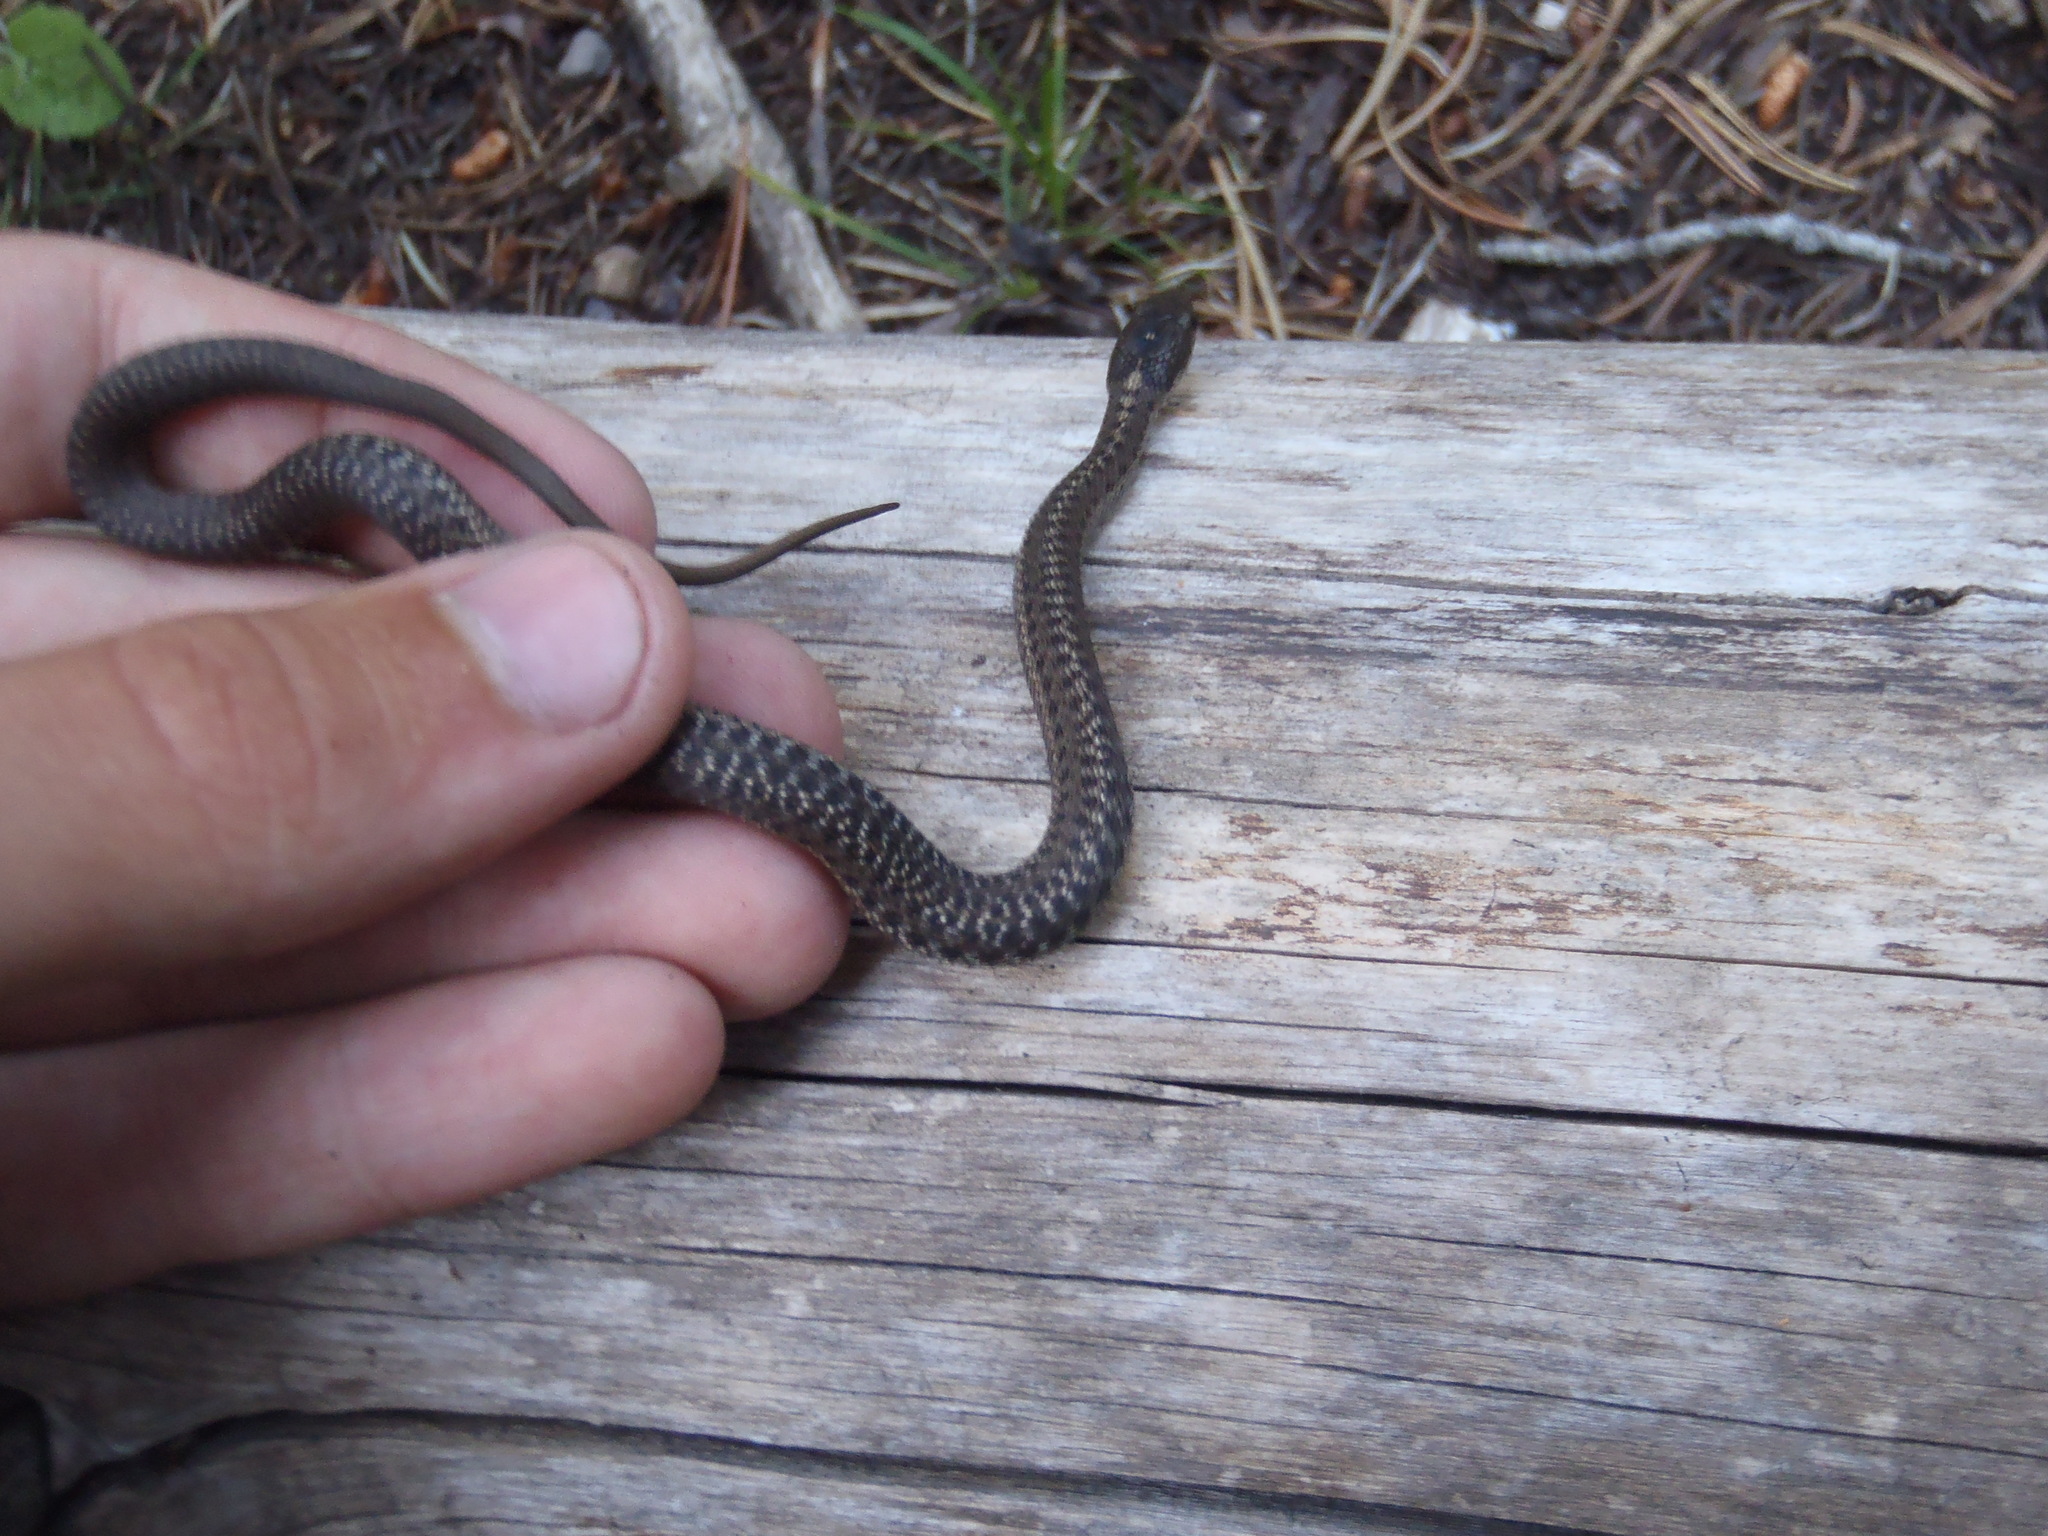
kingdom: Animalia
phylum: Chordata
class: Squamata
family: Colubridae
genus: Thamnophis
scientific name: Thamnophis elegans
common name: Western terrestrial garter snake
